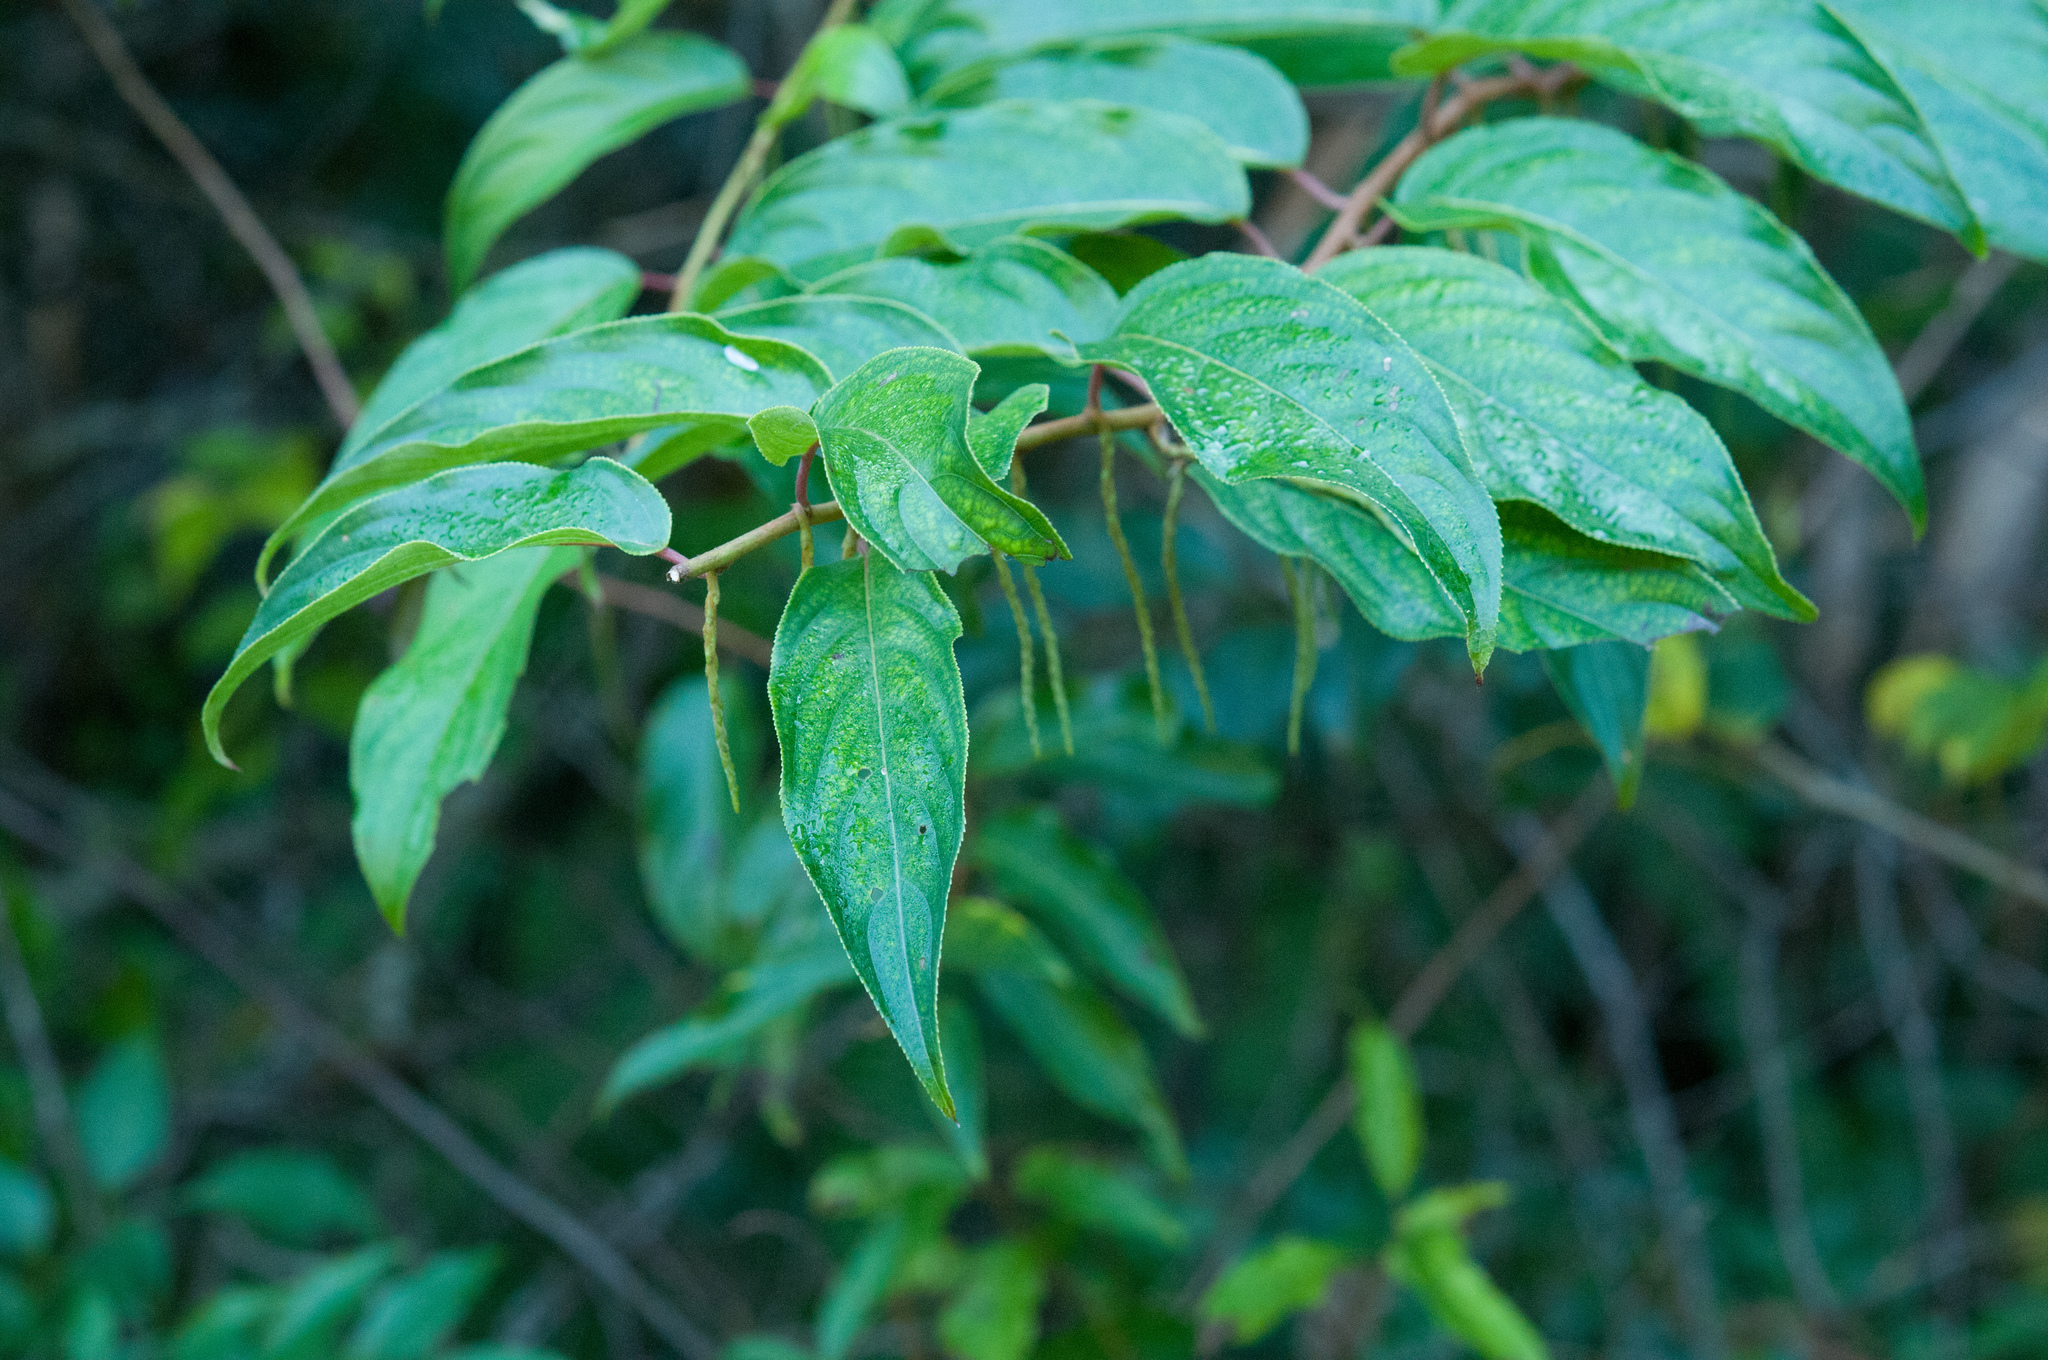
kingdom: Plantae
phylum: Tracheophyta
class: Magnoliopsida
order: Crossosomatales
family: Stachyuraceae
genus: Stachyurus
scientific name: Stachyurus himalaicus
